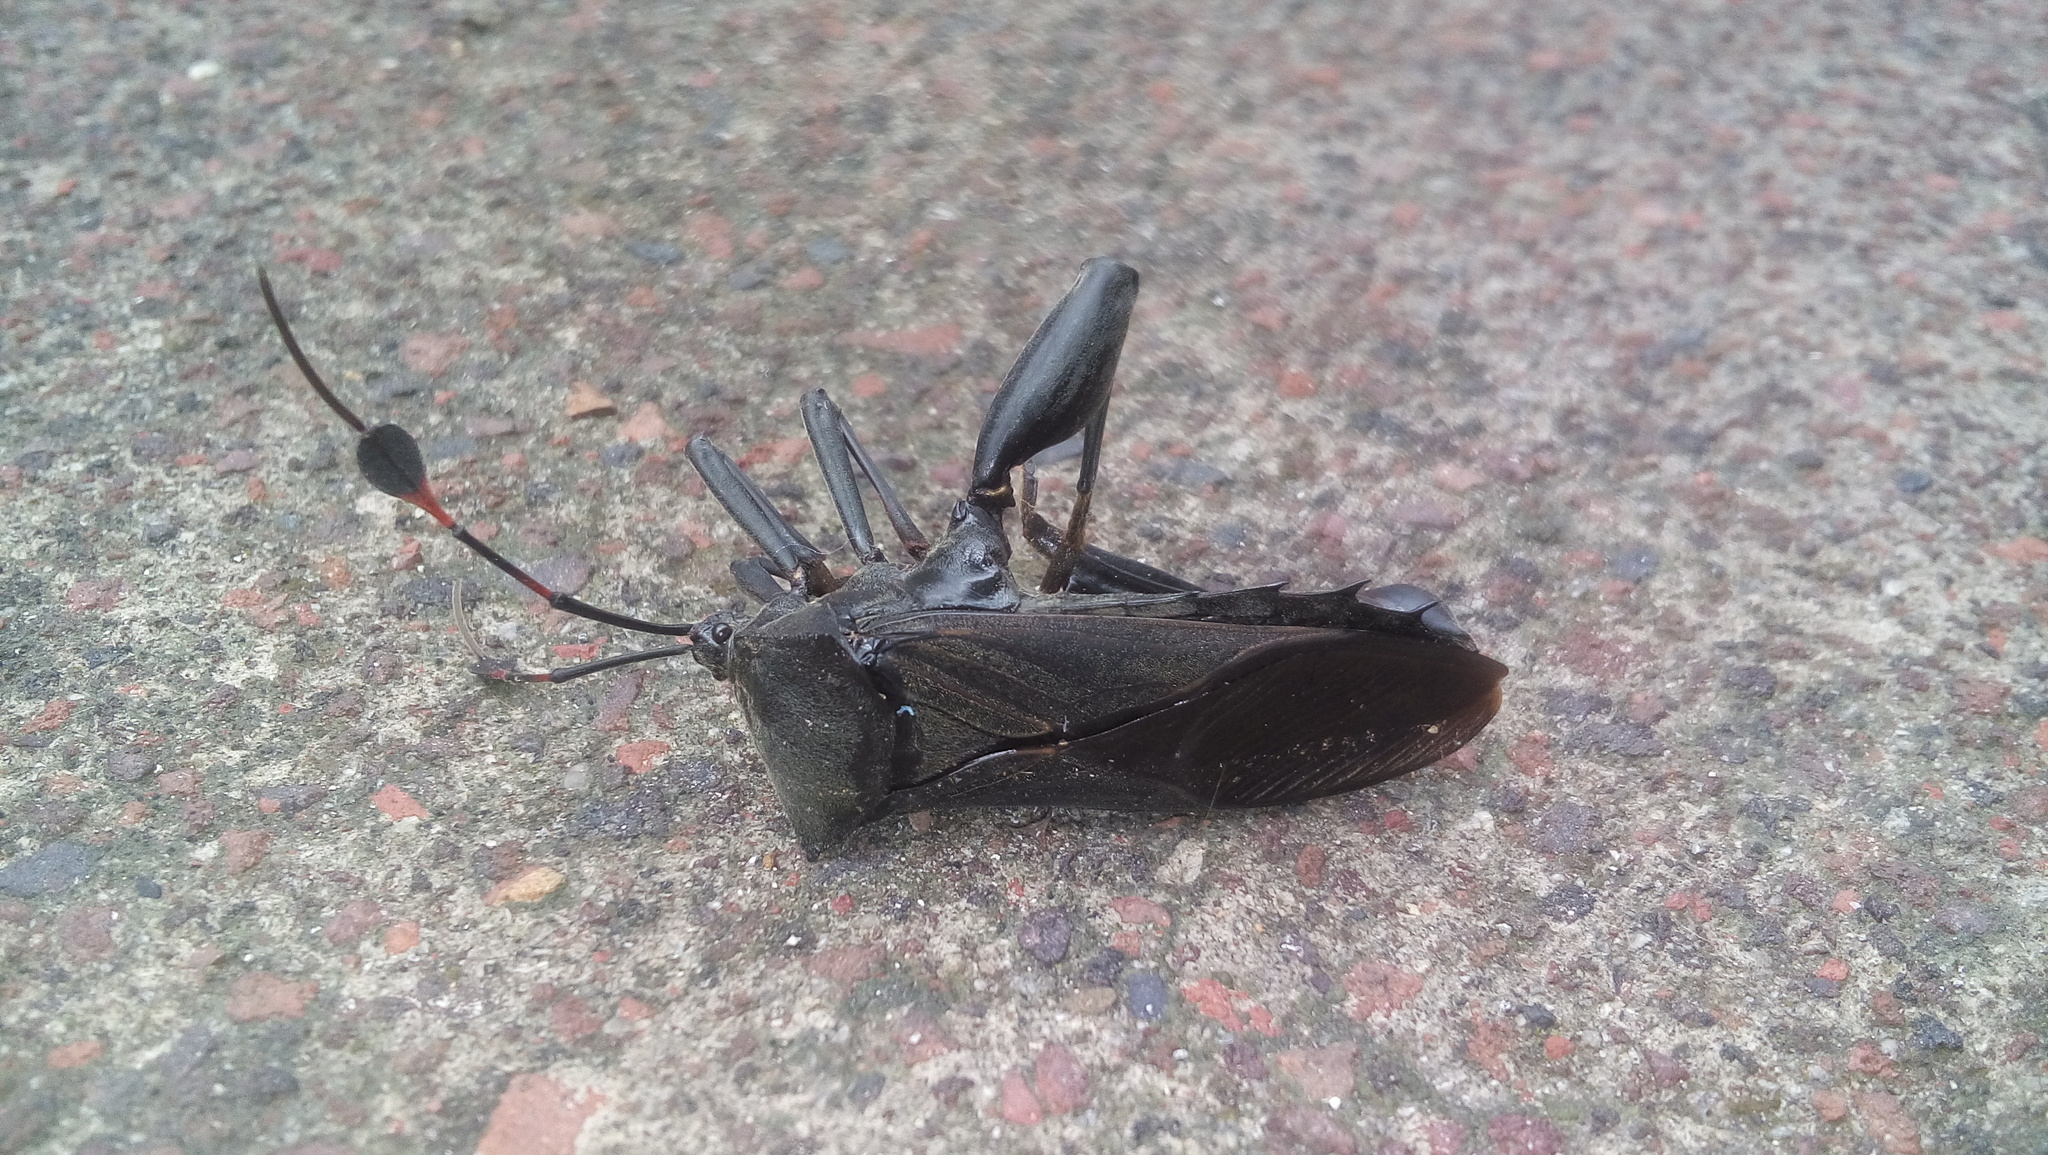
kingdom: Animalia
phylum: Arthropoda
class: Insecta
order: Hemiptera
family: Coreidae
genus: Thasus
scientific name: Thasus acutangulus
